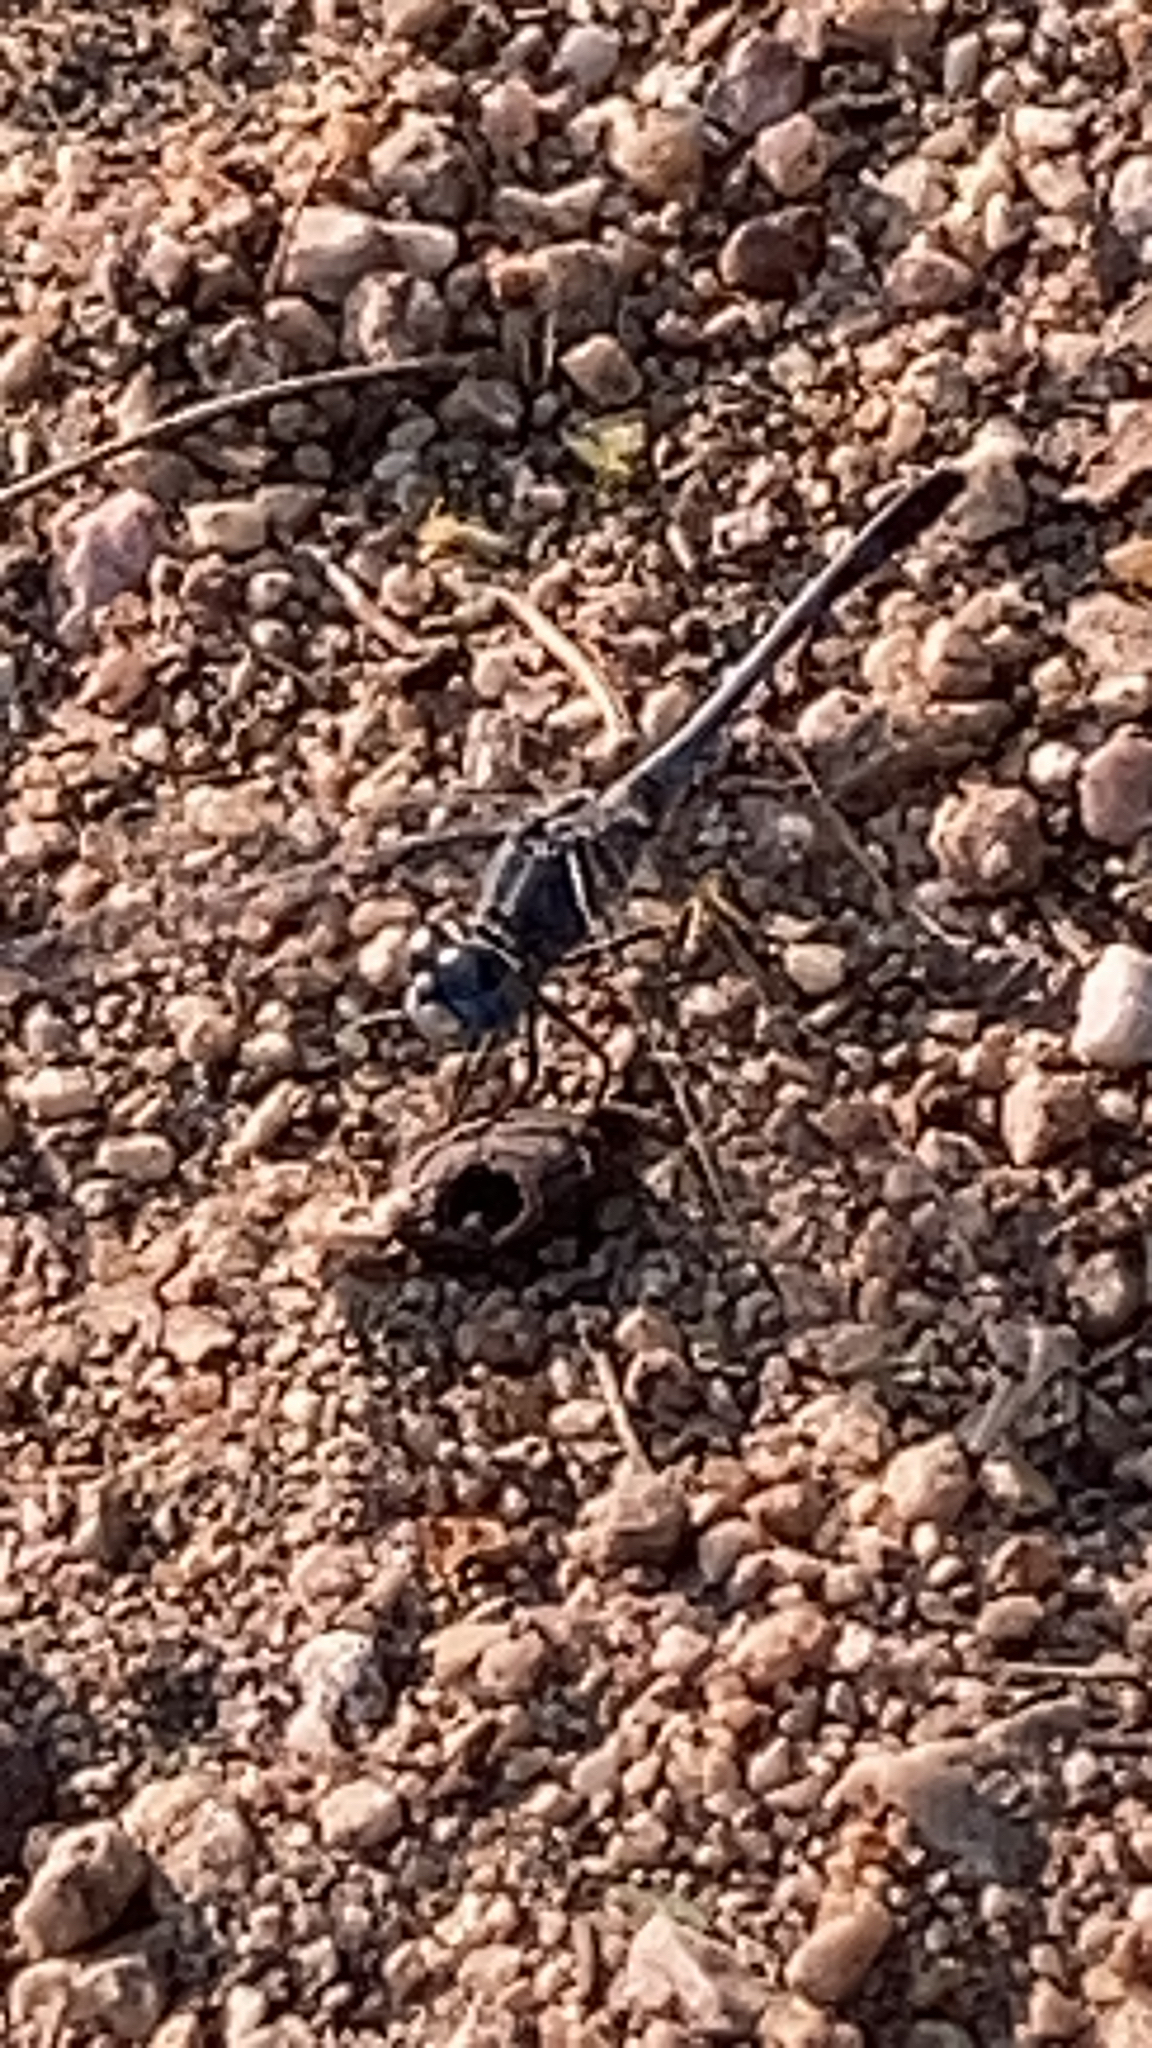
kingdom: Animalia
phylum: Arthropoda
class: Insecta
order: Odonata
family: Libellulidae
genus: Diplacodes
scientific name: Diplacodes trivialis
